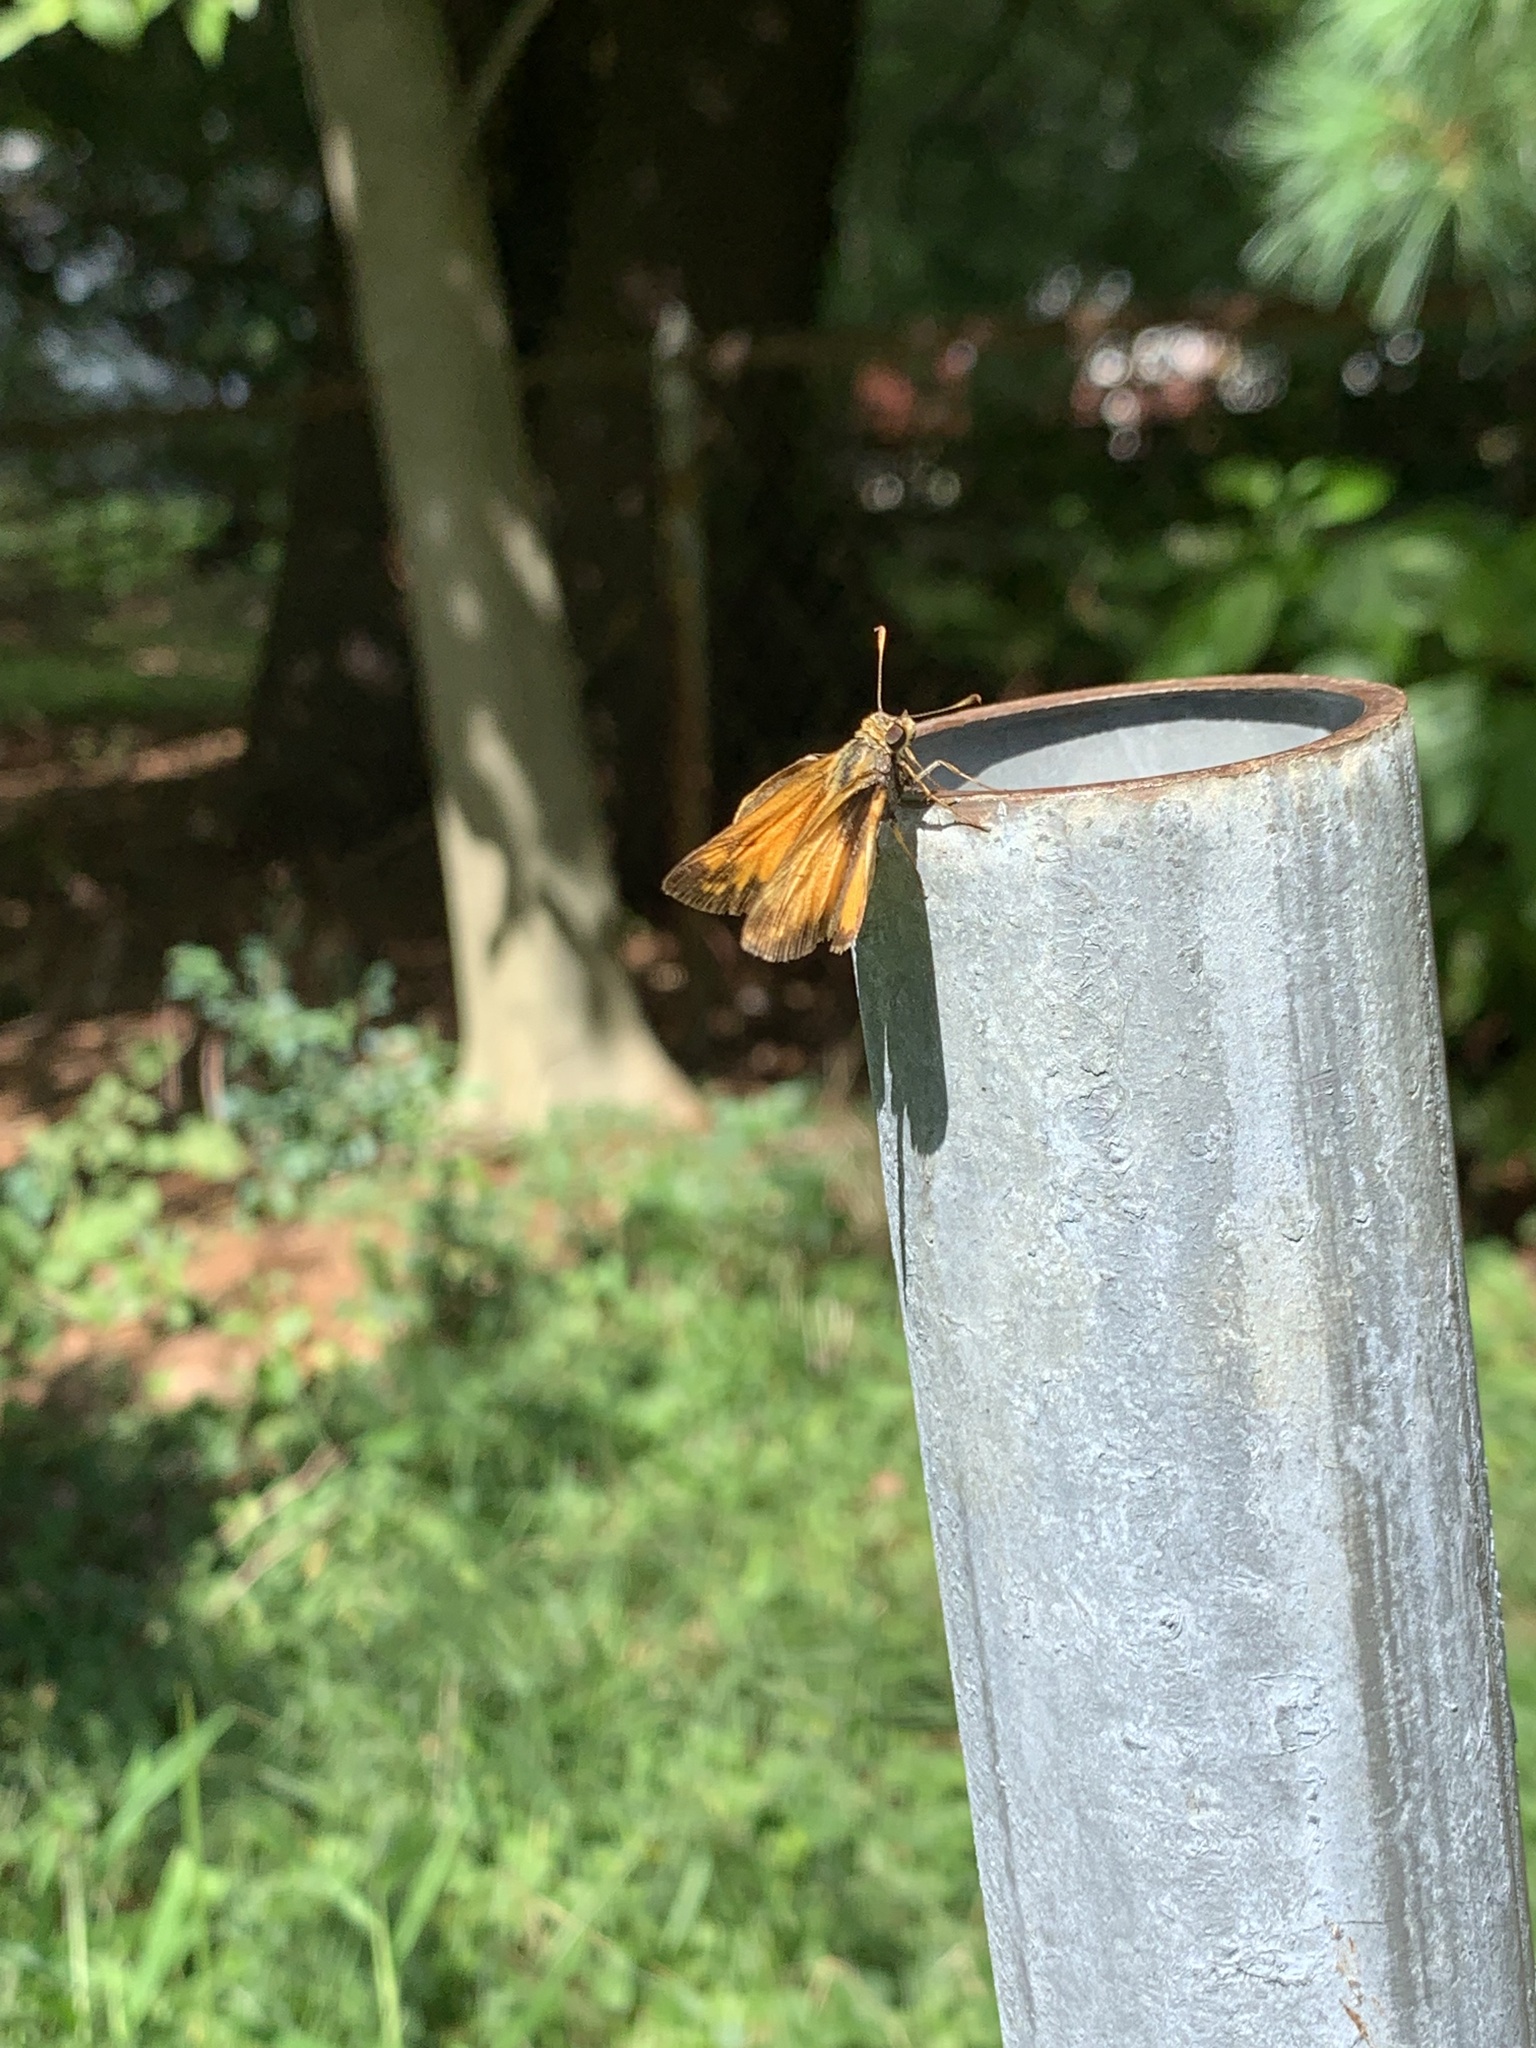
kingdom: Animalia
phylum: Arthropoda
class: Insecta
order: Lepidoptera
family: Hesperiidae
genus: Lon
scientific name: Lon zabulon
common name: Zabulon skipper
